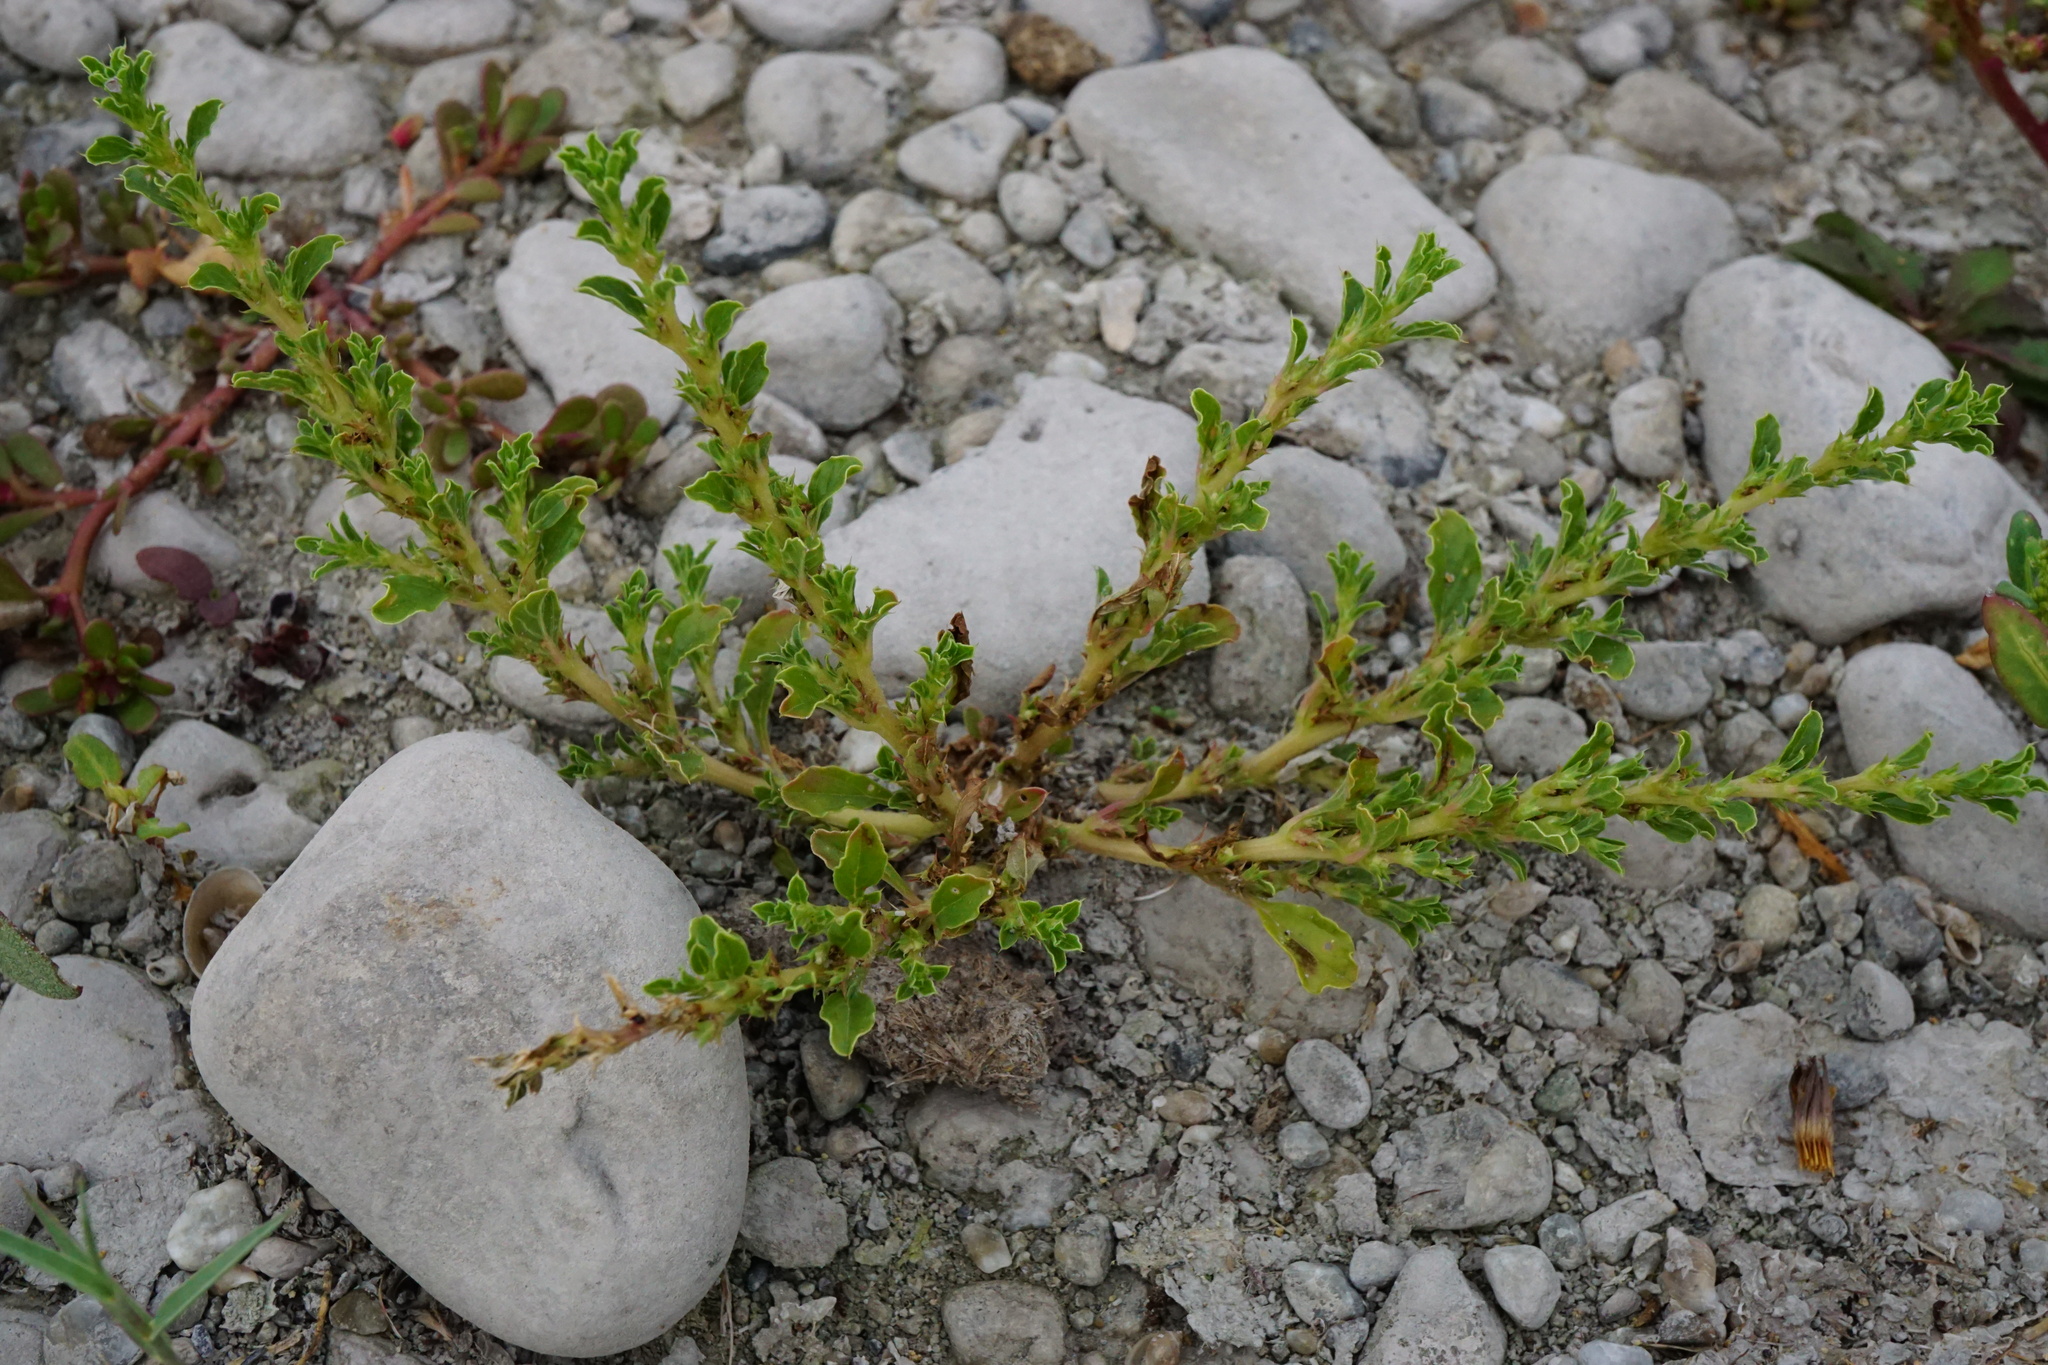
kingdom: Plantae
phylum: Tracheophyta
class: Magnoliopsida
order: Caryophyllales
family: Amaranthaceae
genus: Amaranthus
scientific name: Amaranthus albus
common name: White pigweed
